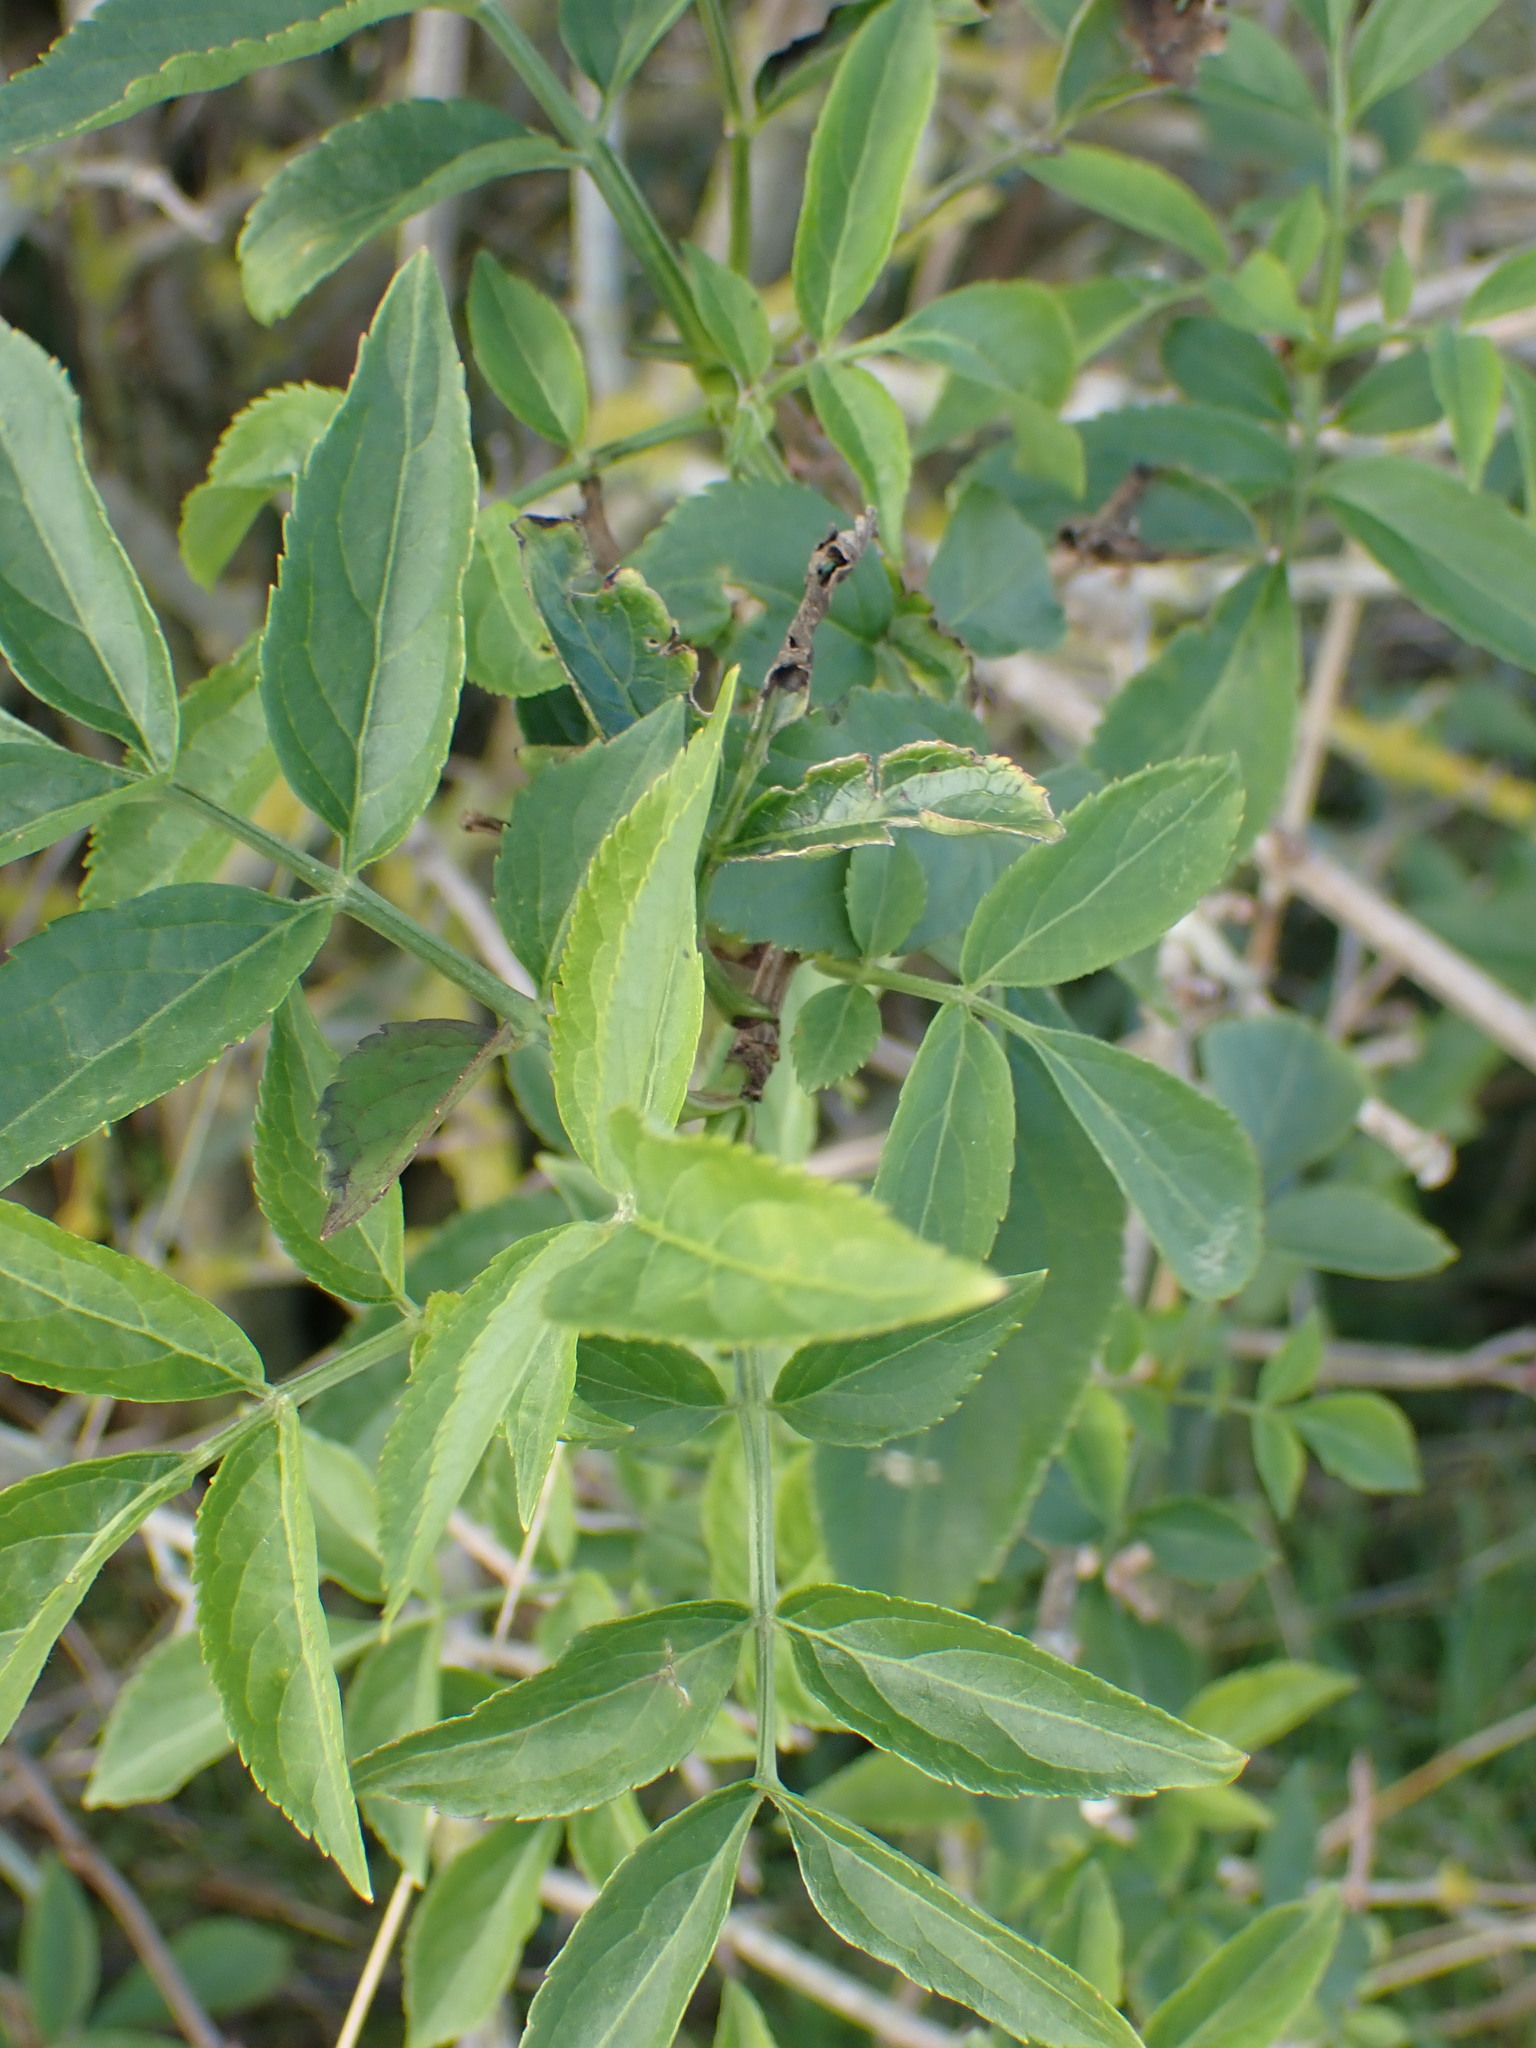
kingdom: Plantae
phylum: Tracheophyta
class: Magnoliopsida
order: Dipsacales
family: Viburnaceae
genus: Sambucus
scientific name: Sambucus nigra
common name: Elder
